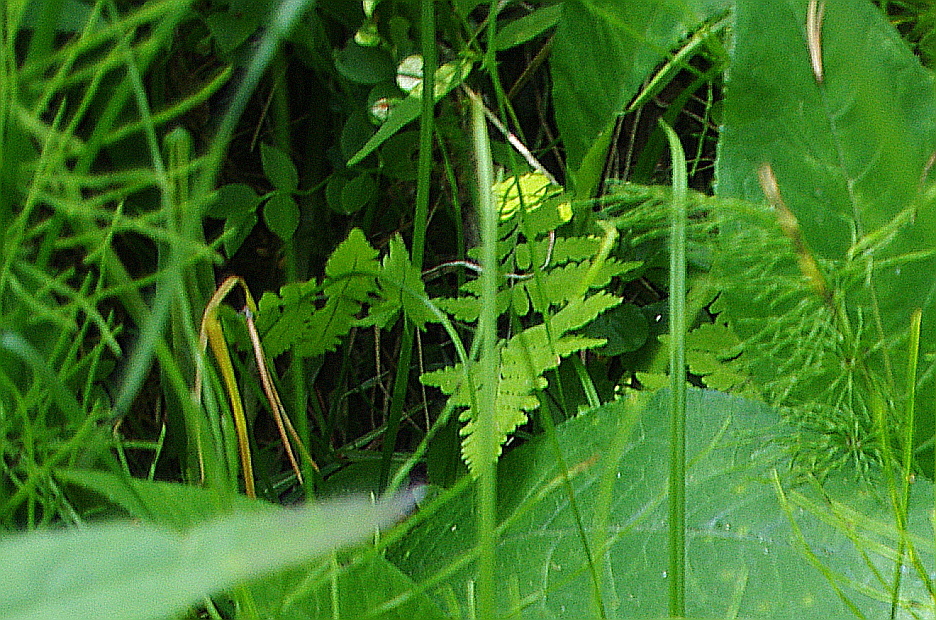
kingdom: Plantae
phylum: Tracheophyta
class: Polypodiopsida
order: Polypodiales
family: Cystopteridaceae
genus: Gymnocarpium
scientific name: Gymnocarpium dryopteris
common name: Oak fern
